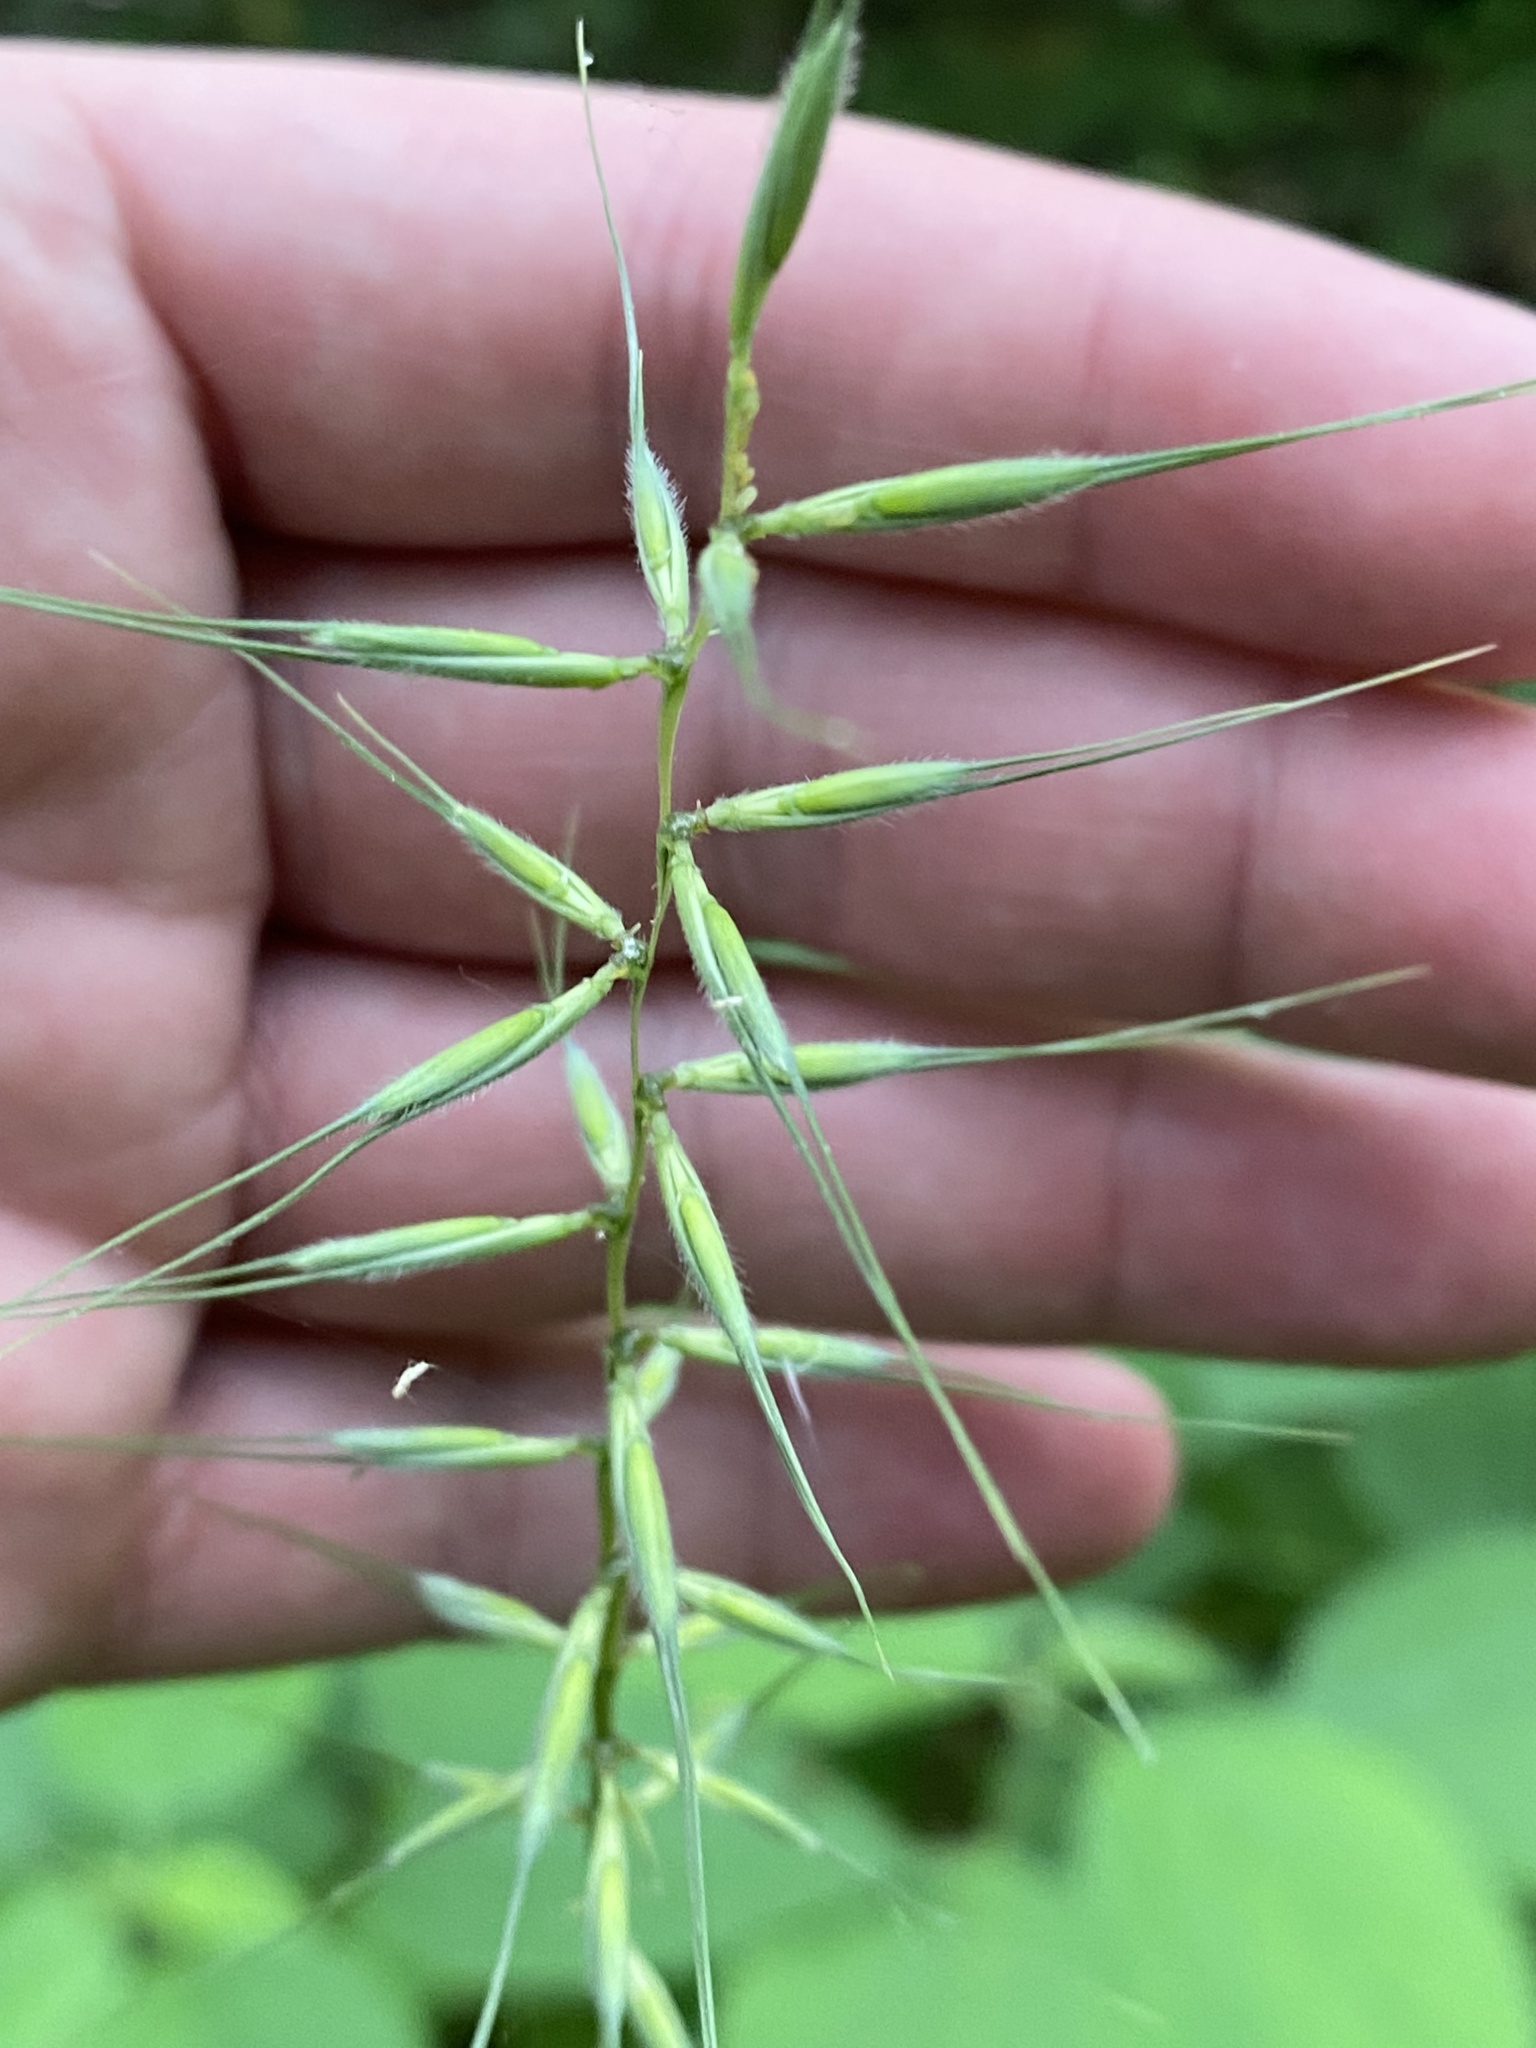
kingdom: Plantae
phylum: Tracheophyta
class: Liliopsida
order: Poales
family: Poaceae
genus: Elymus
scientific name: Elymus hystrix
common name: Bottlebrush grass
